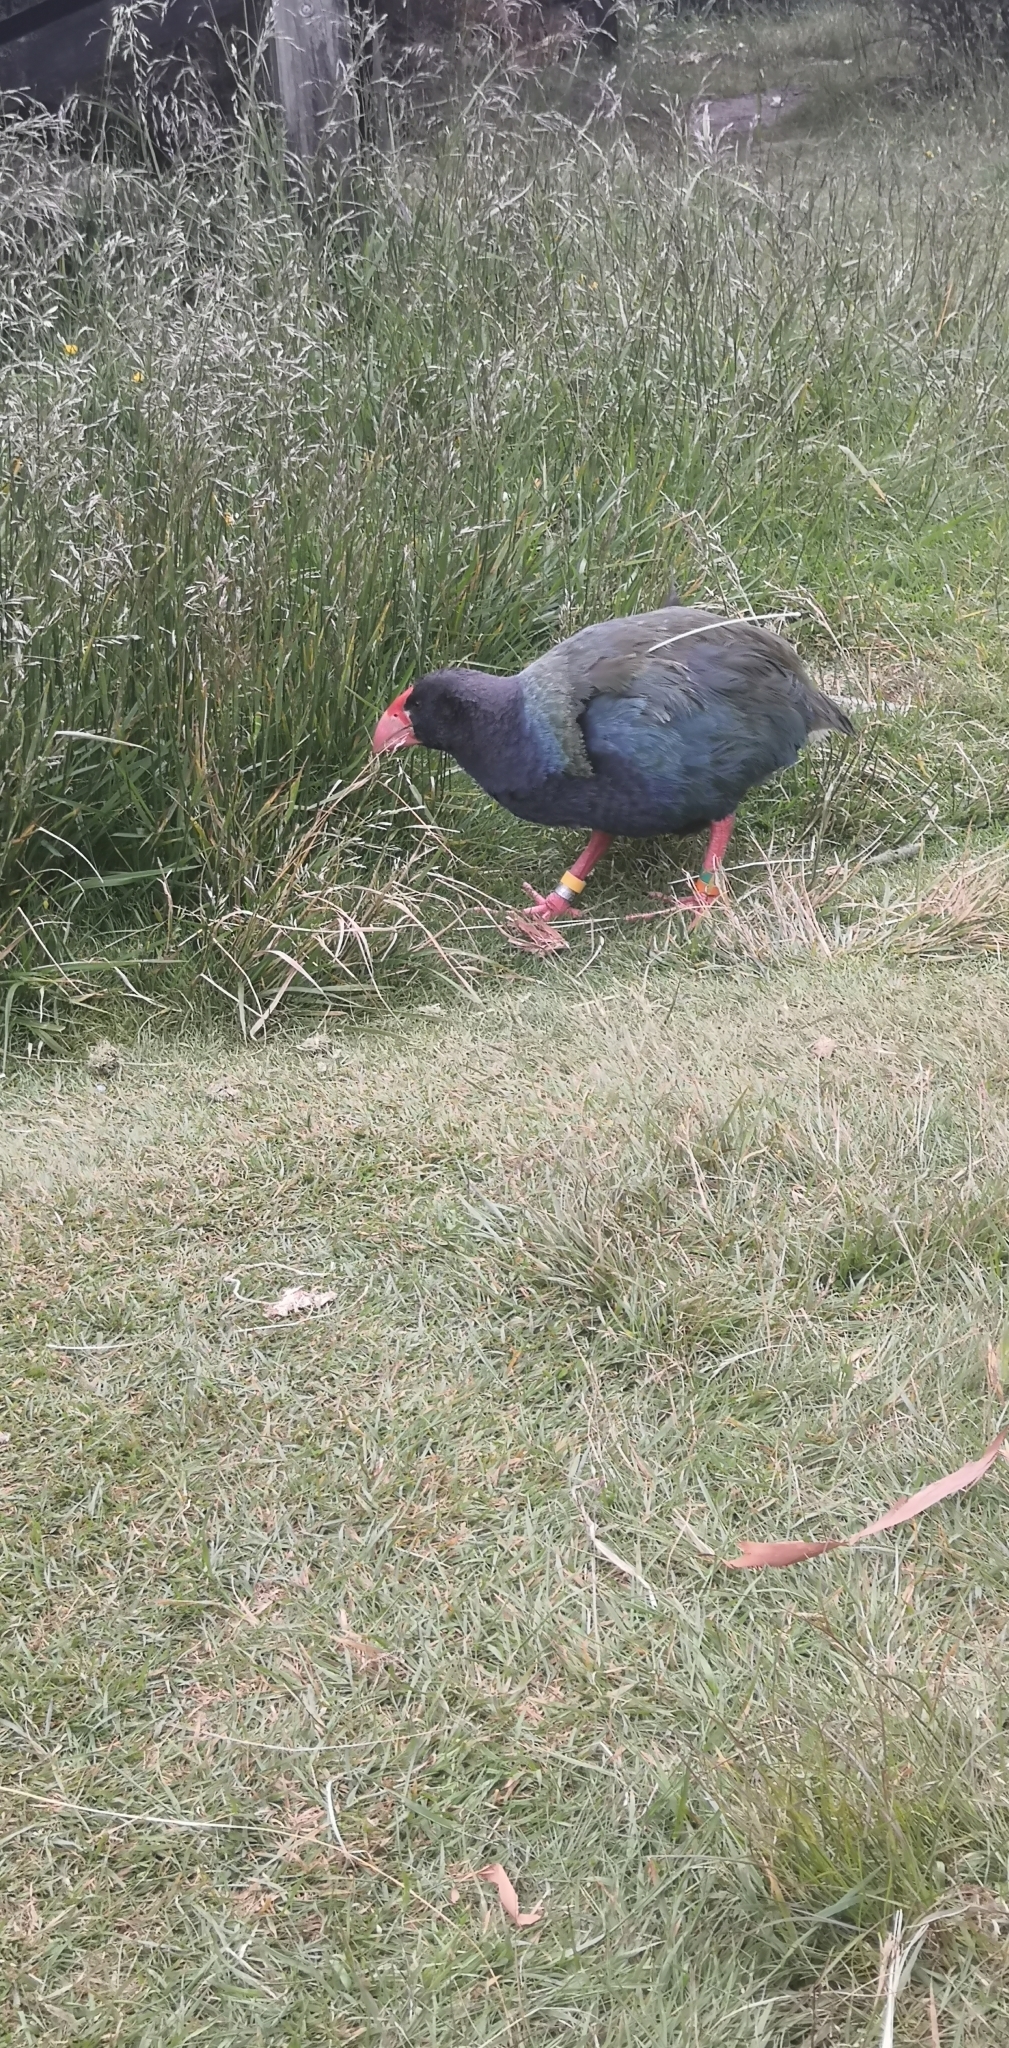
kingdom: Animalia
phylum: Chordata
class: Aves
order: Gruiformes
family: Rallidae
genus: Porphyrio
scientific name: Porphyrio hochstetteri
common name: South island takahe
